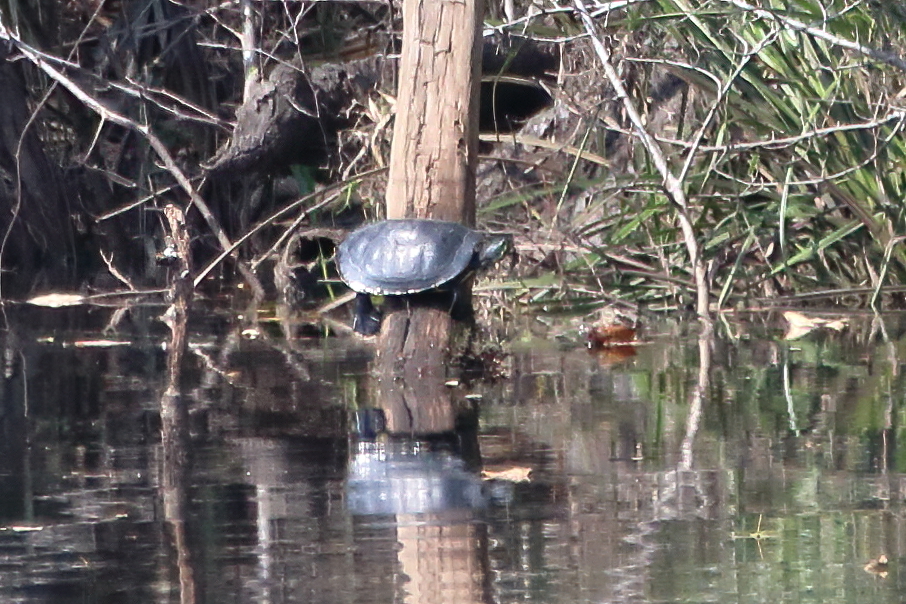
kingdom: Animalia
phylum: Chordata
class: Testudines
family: Emydidae
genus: Pseudemys
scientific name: Pseudemys
